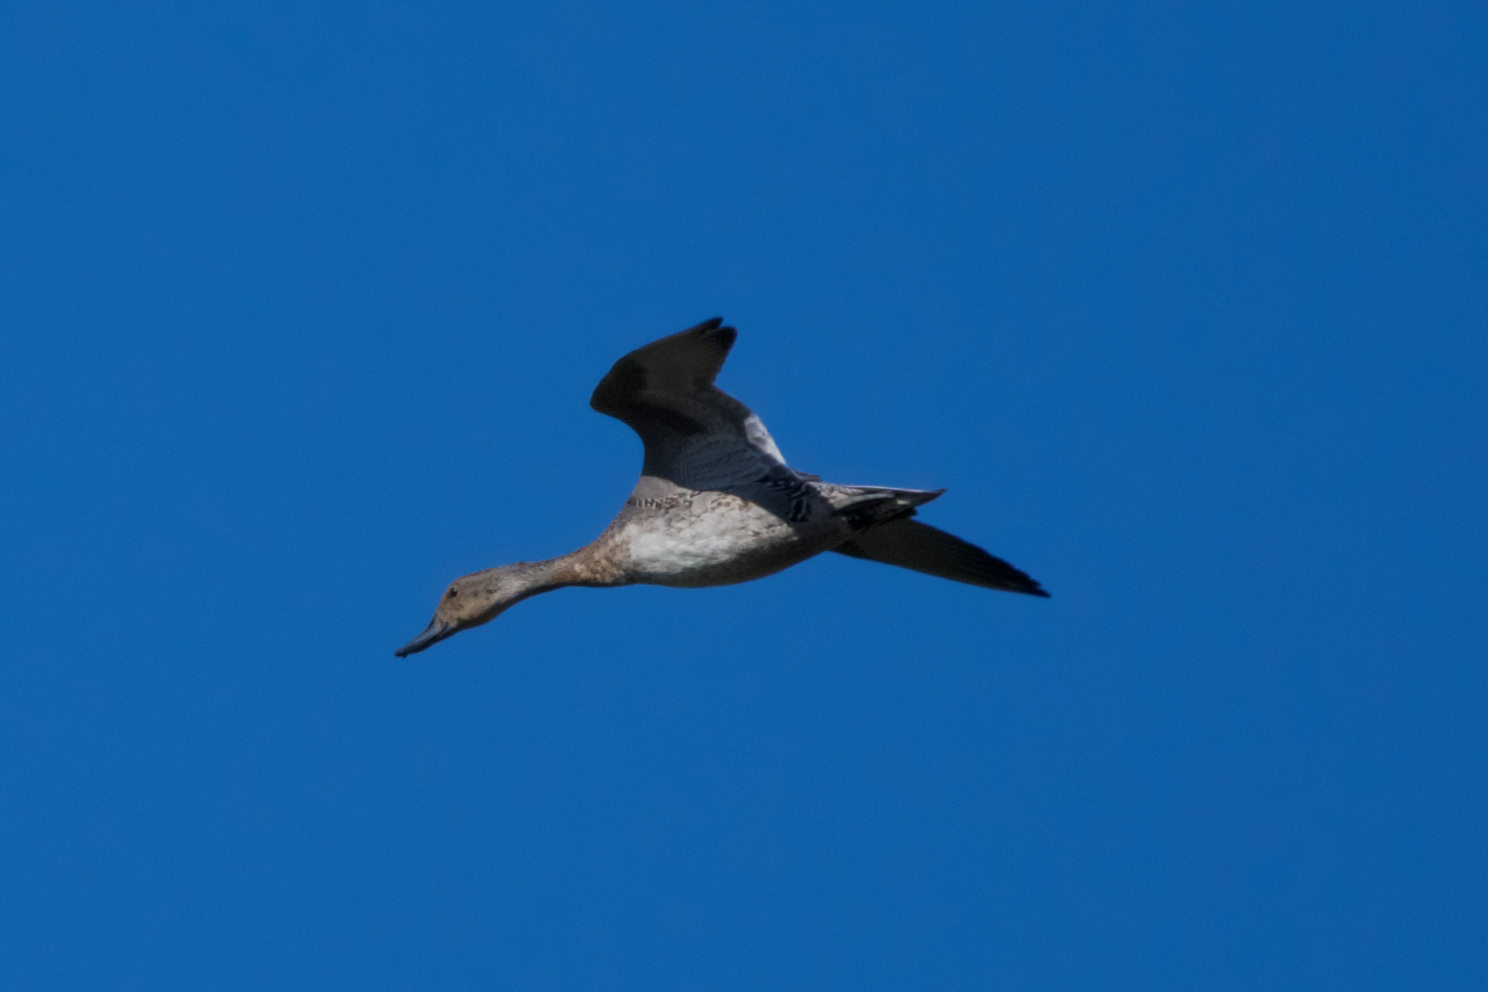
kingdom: Animalia
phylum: Chordata
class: Aves
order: Anseriformes
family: Anatidae
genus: Anas
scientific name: Anas acuta
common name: Northern pintail
